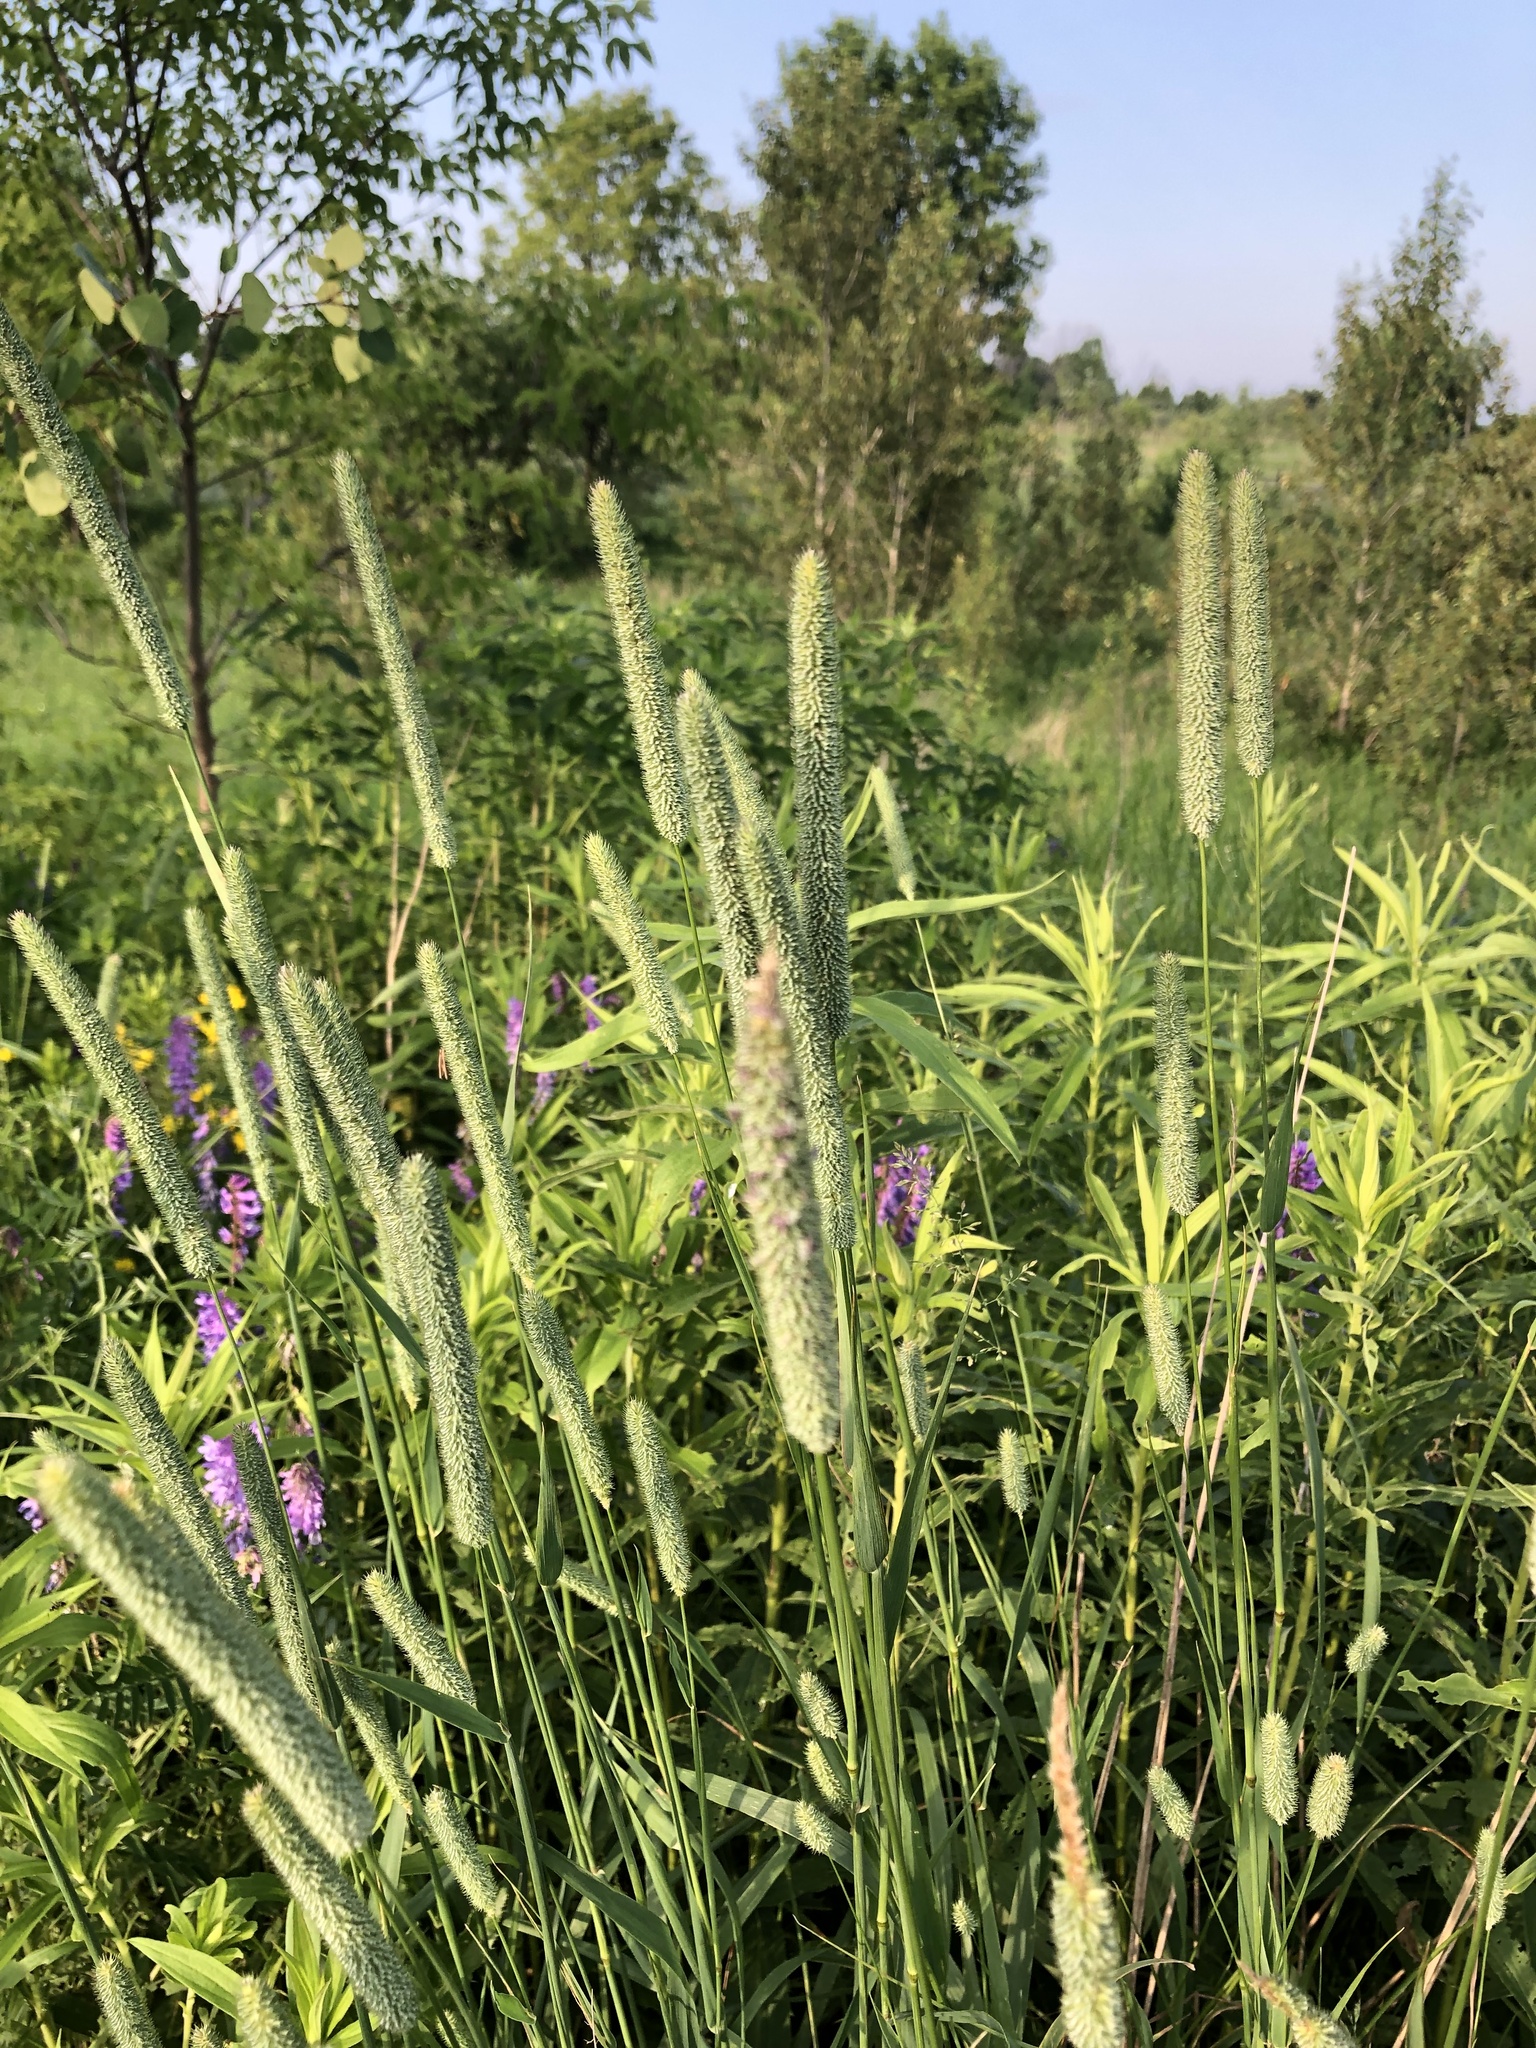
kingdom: Plantae
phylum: Tracheophyta
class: Liliopsida
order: Poales
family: Poaceae
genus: Phleum
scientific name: Phleum pratense
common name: Timothy grass
